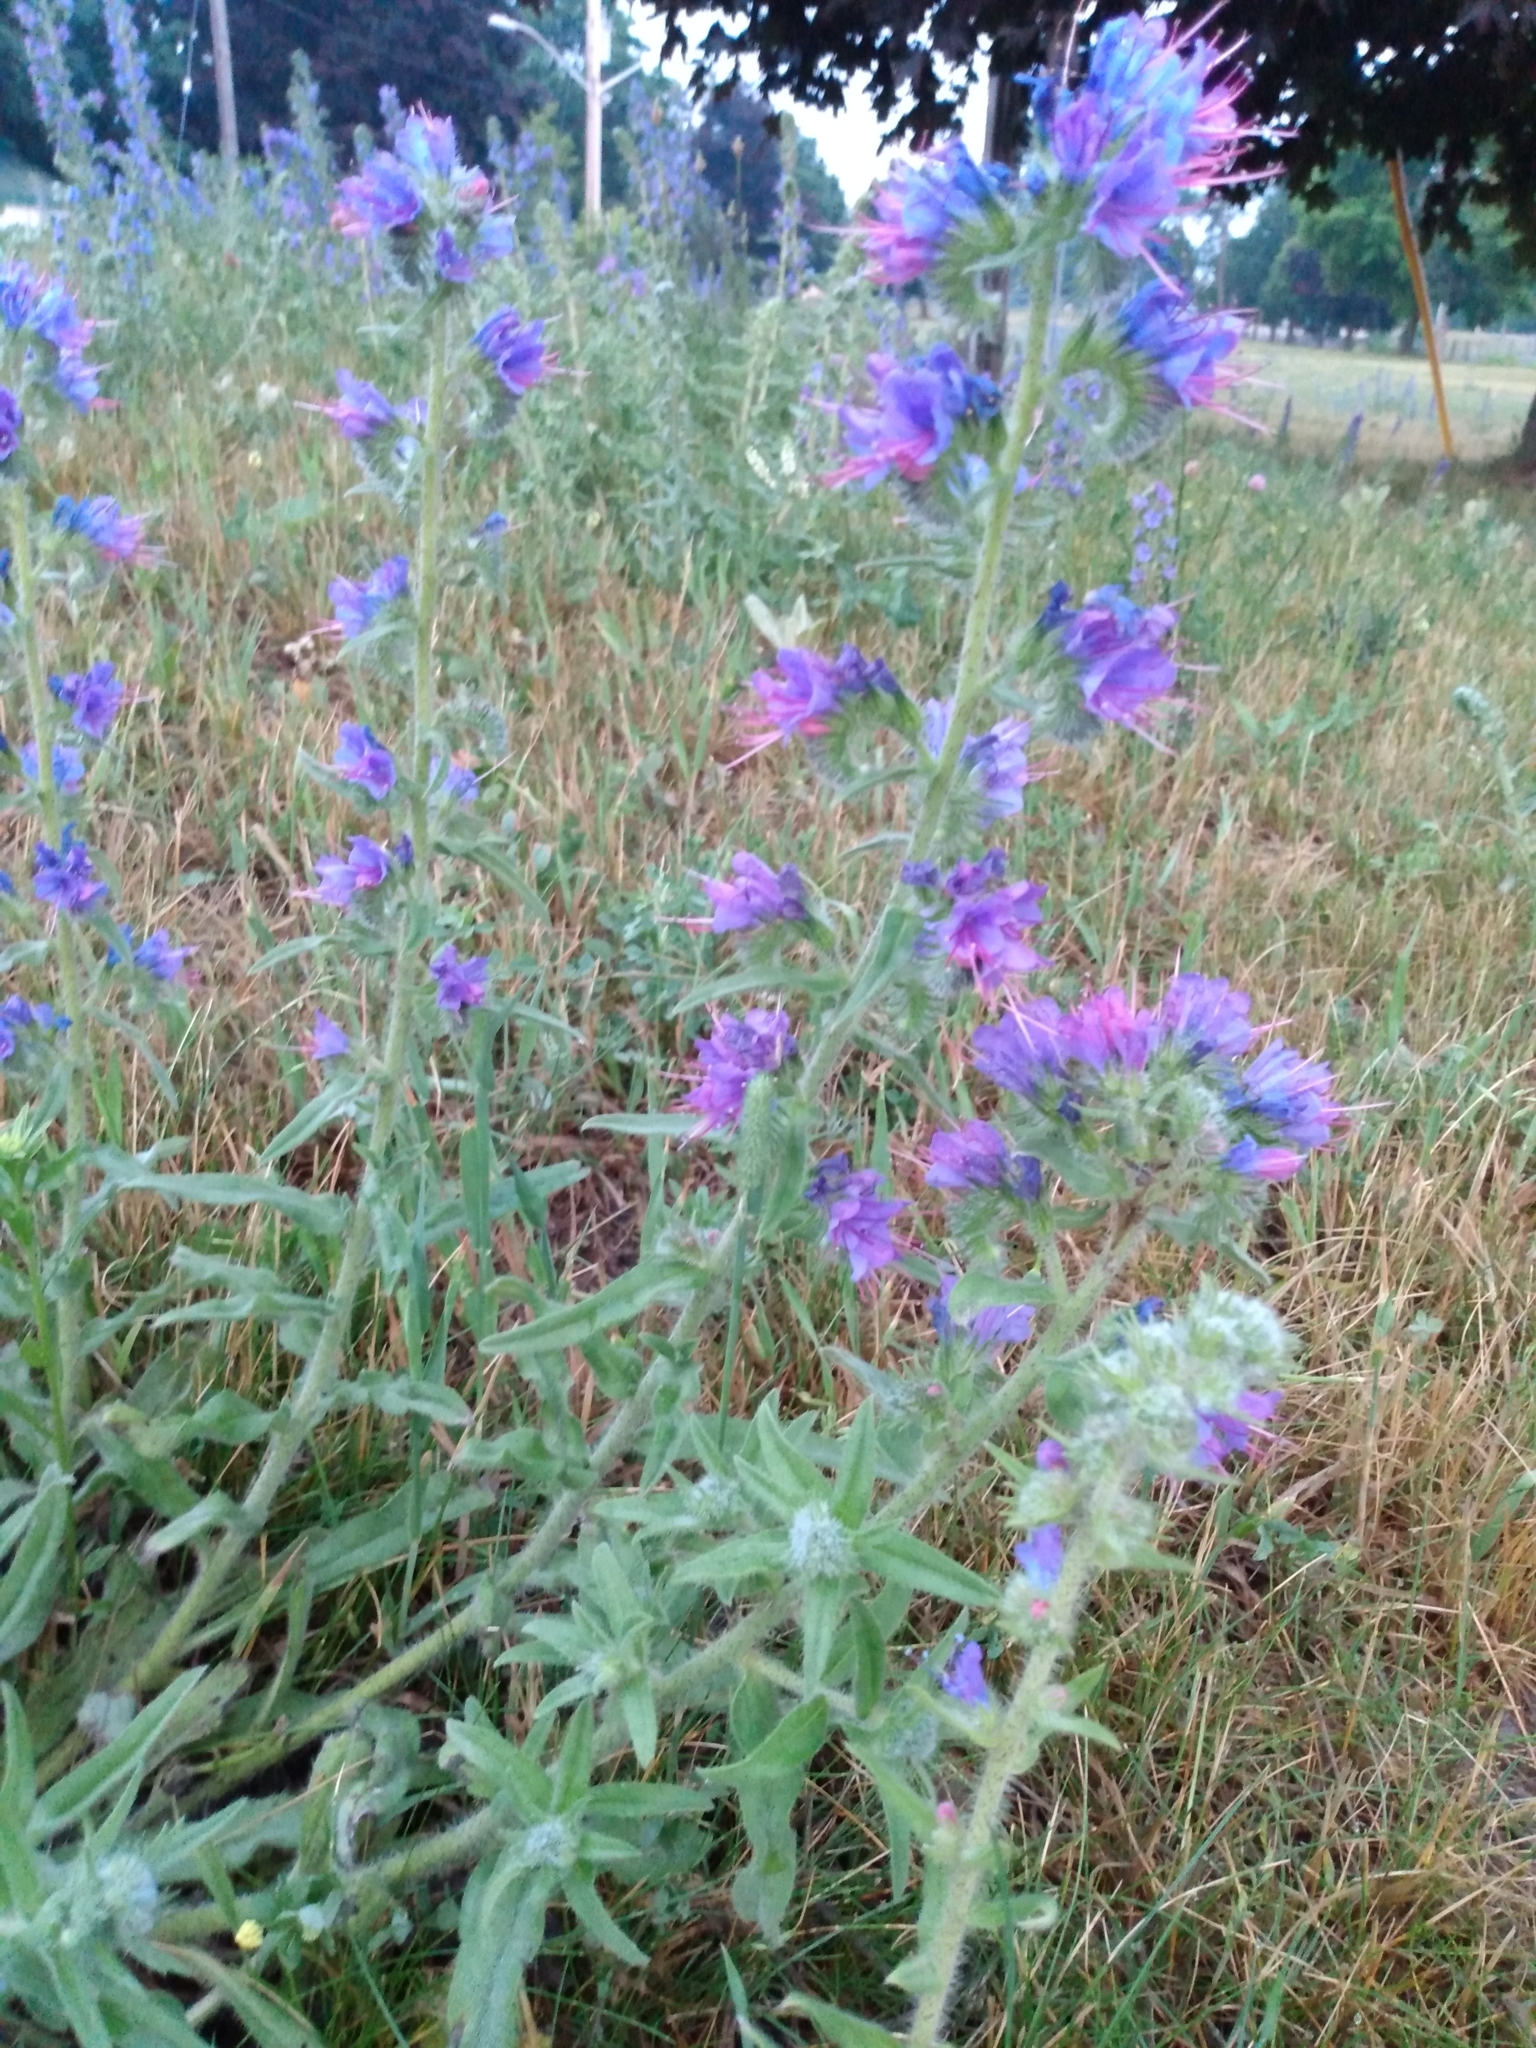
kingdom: Plantae
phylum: Tracheophyta
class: Magnoliopsida
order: Boraginales
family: Boraginaceae
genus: Echium
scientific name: Echium vulgare
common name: Common viper's bugloss
